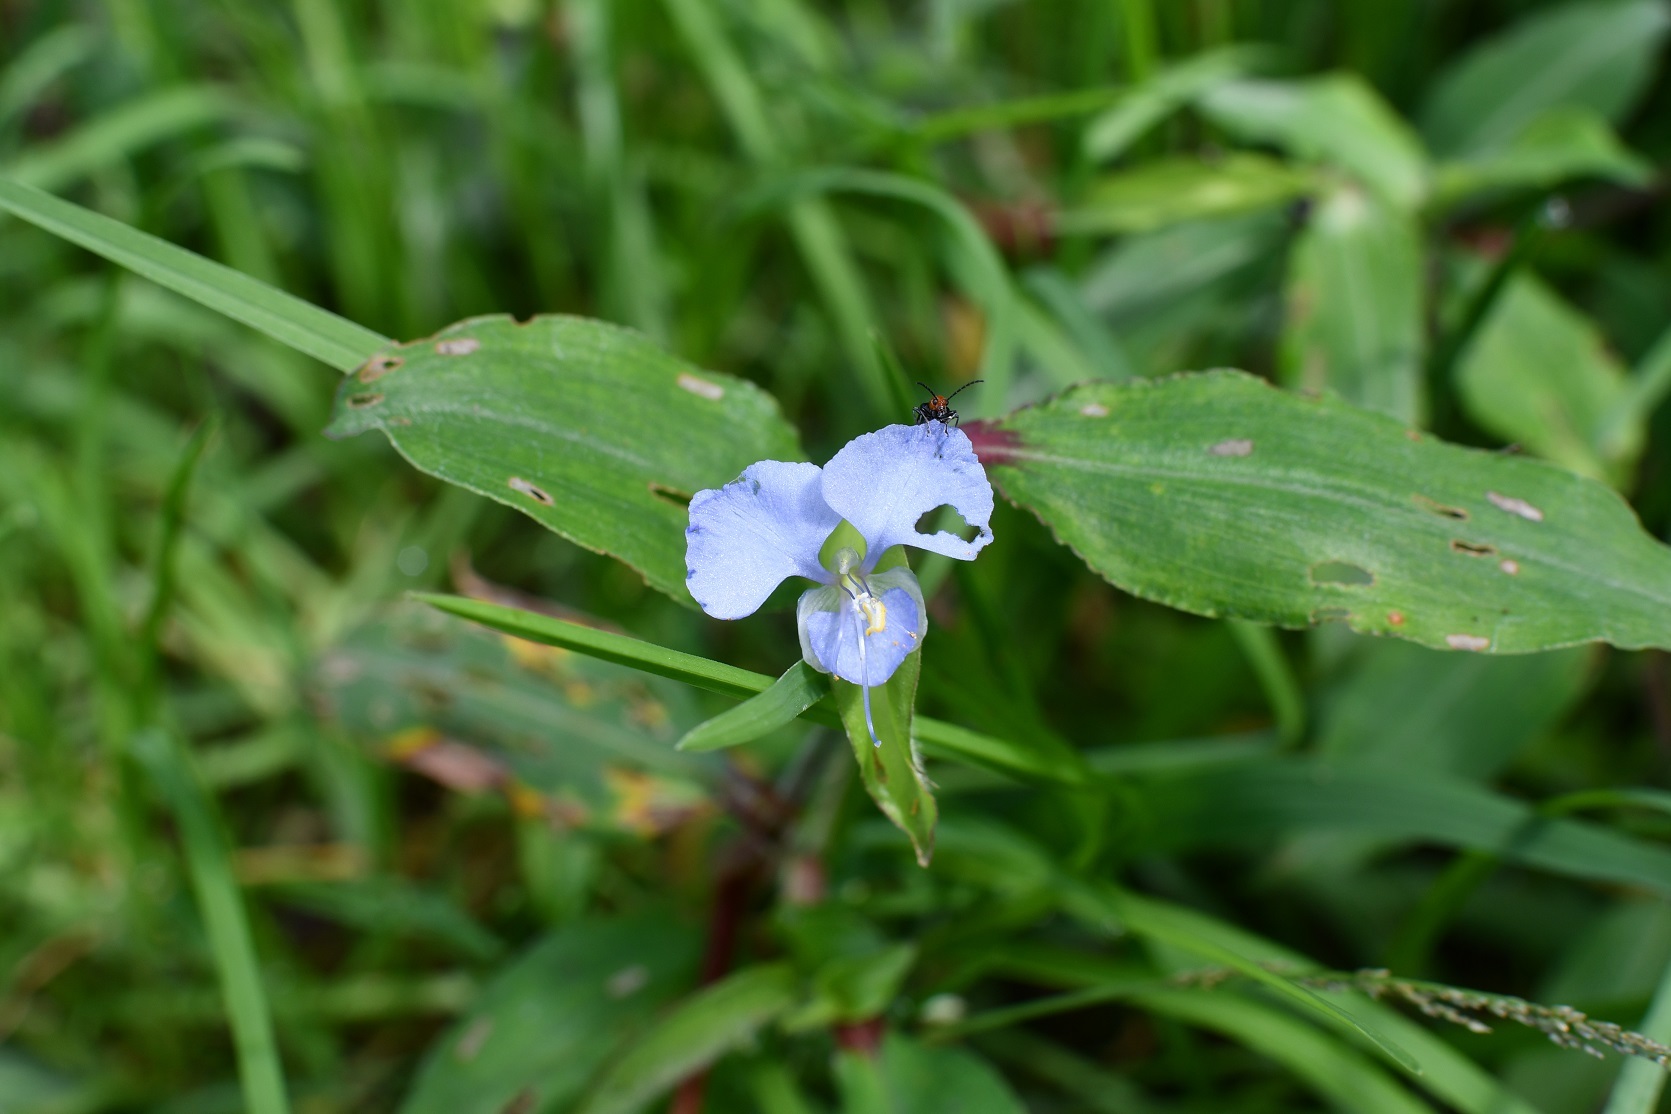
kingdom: Plantae
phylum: Tracheophyta
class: Liliopsida
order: Commelinales
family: Commelinaceae
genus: Commelina
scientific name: Commelina diffusa
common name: Climbing dayflower
